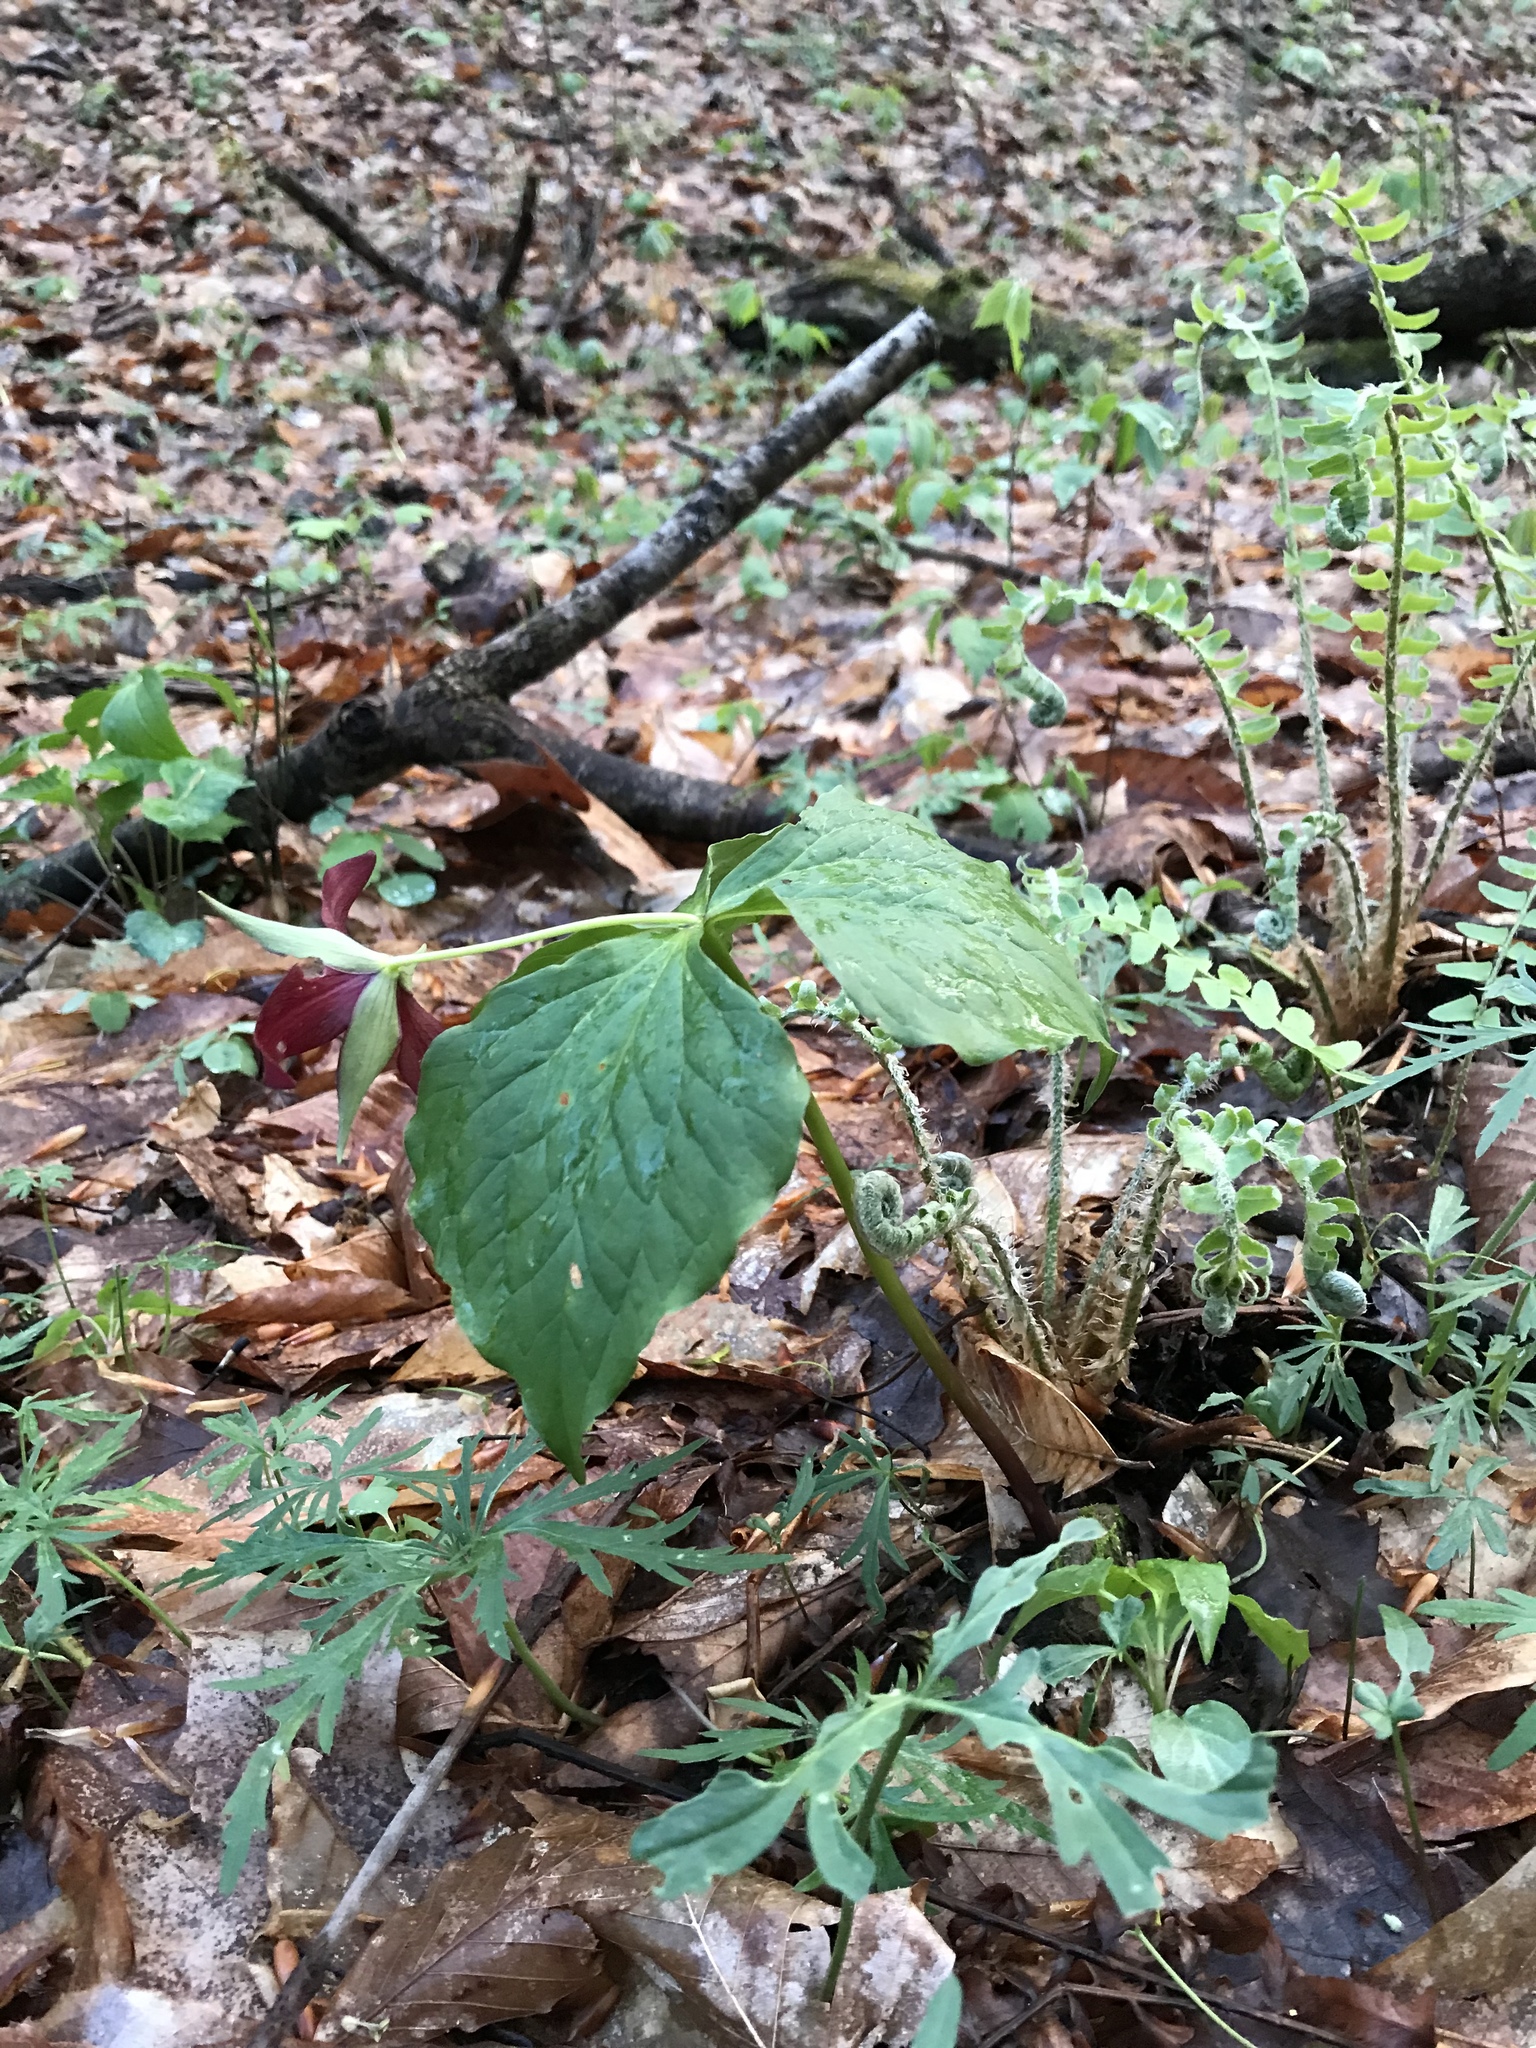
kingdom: Plantae
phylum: Tracheophyta
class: Liliopsida
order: Liliales
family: Melanthiaceae
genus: Trillium
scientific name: Trillium erectum
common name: Purple trillium
